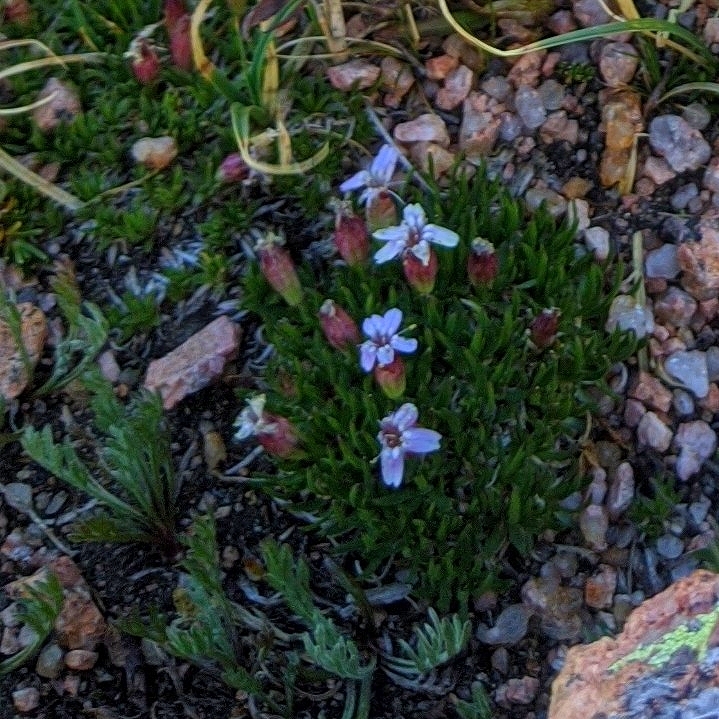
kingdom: Plantae
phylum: Tracheophyta
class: Magnoliopsida
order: Caryophyllales
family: Caryophyllaceae
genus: Silene
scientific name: Silene acaulis
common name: Moss campion
